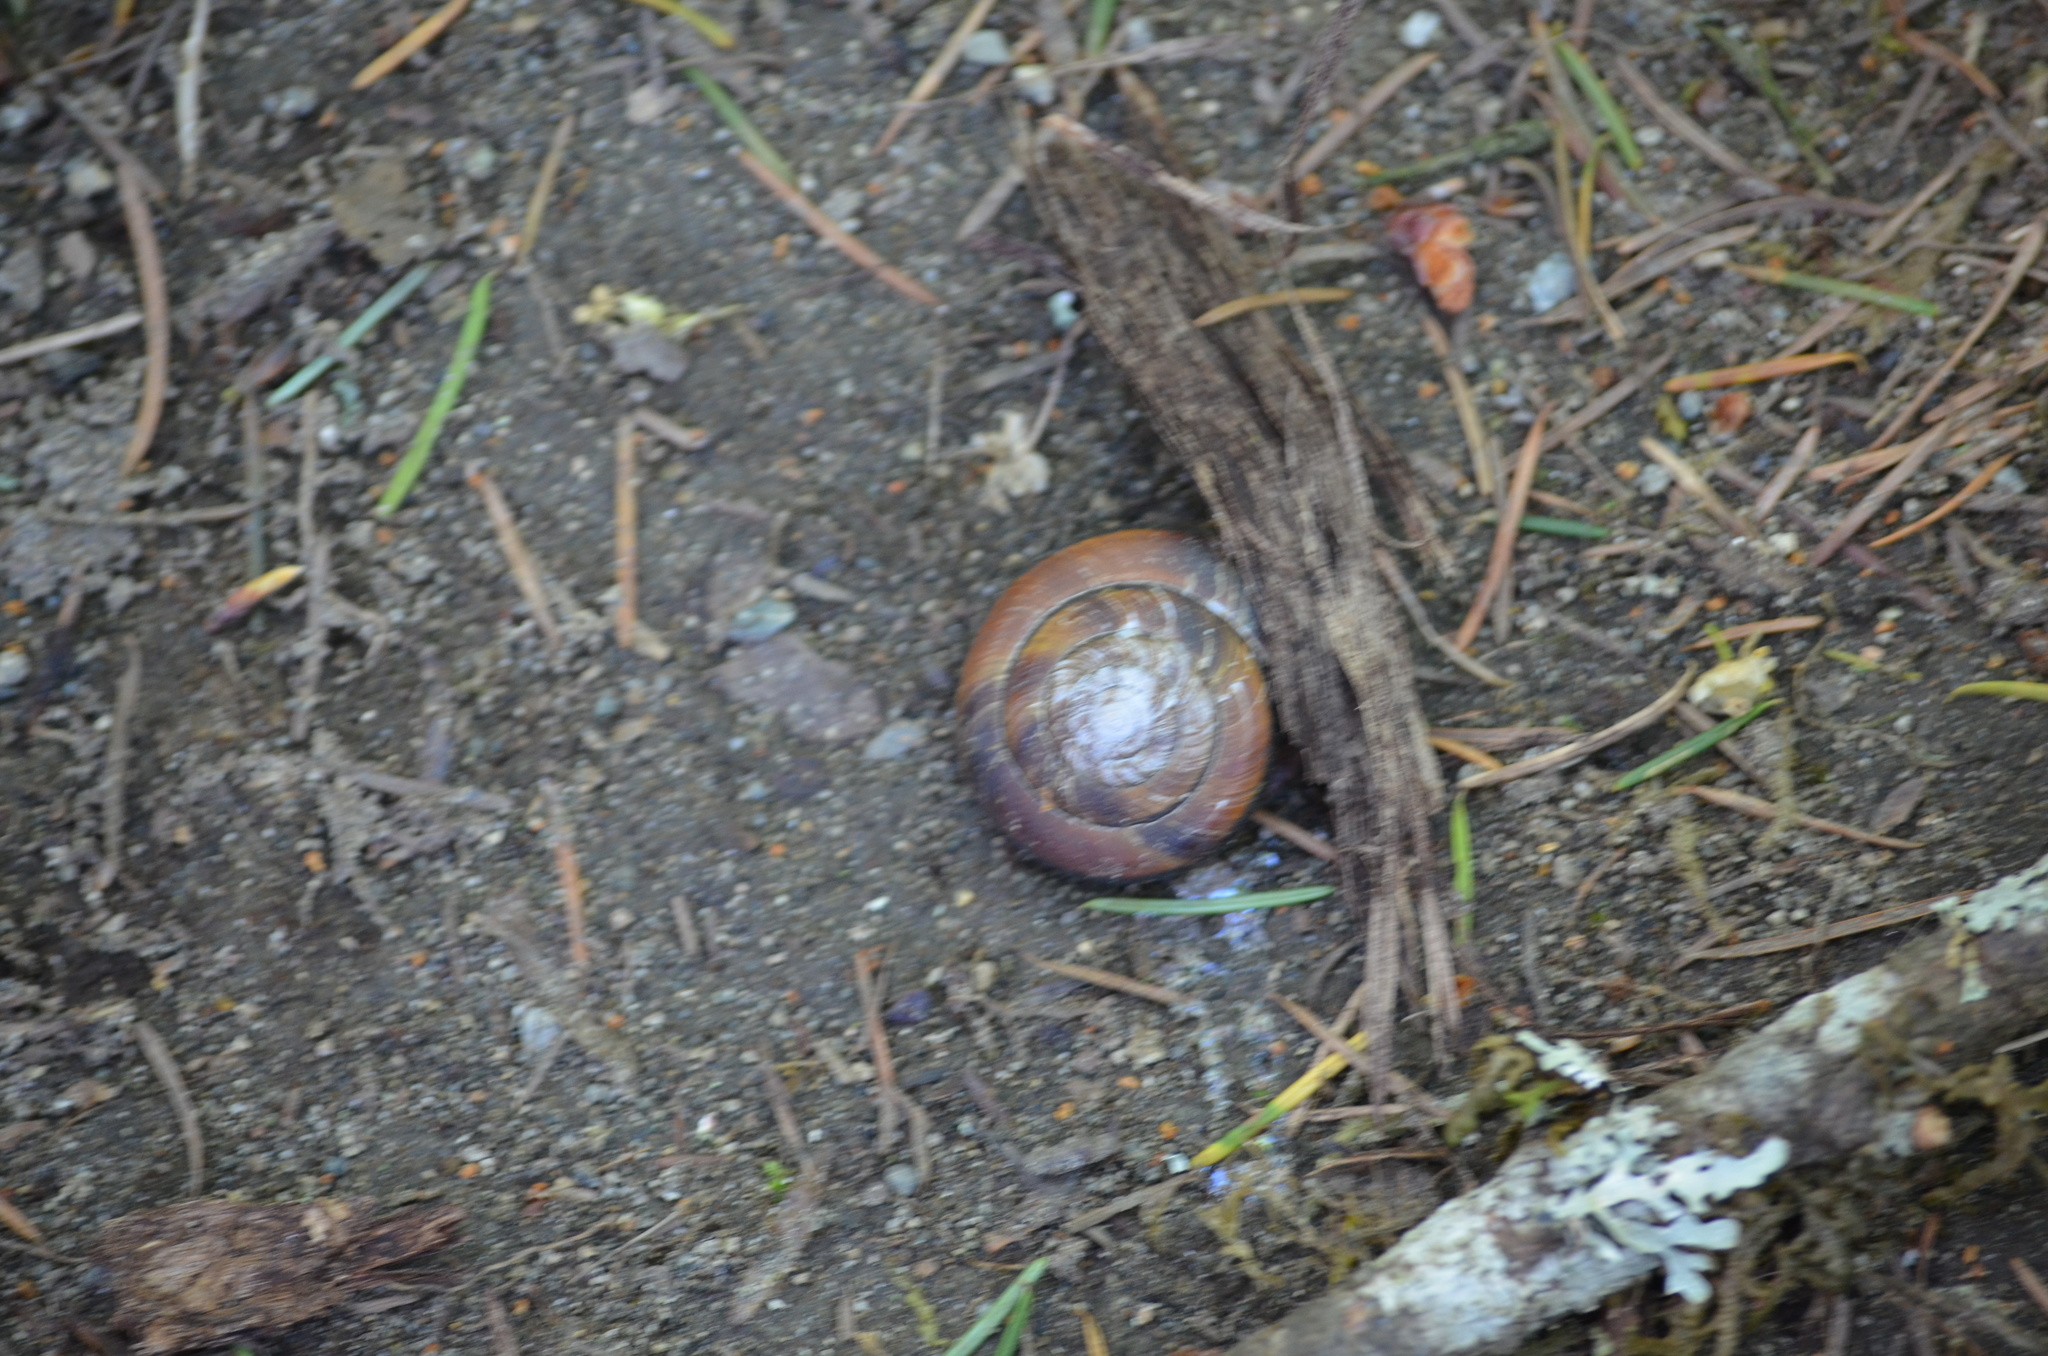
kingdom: Animalia
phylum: Mollusca
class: Gastropoda
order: Stylommatophora
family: Xanthonychidae
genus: Monadenia
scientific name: Monadenia fidelis
